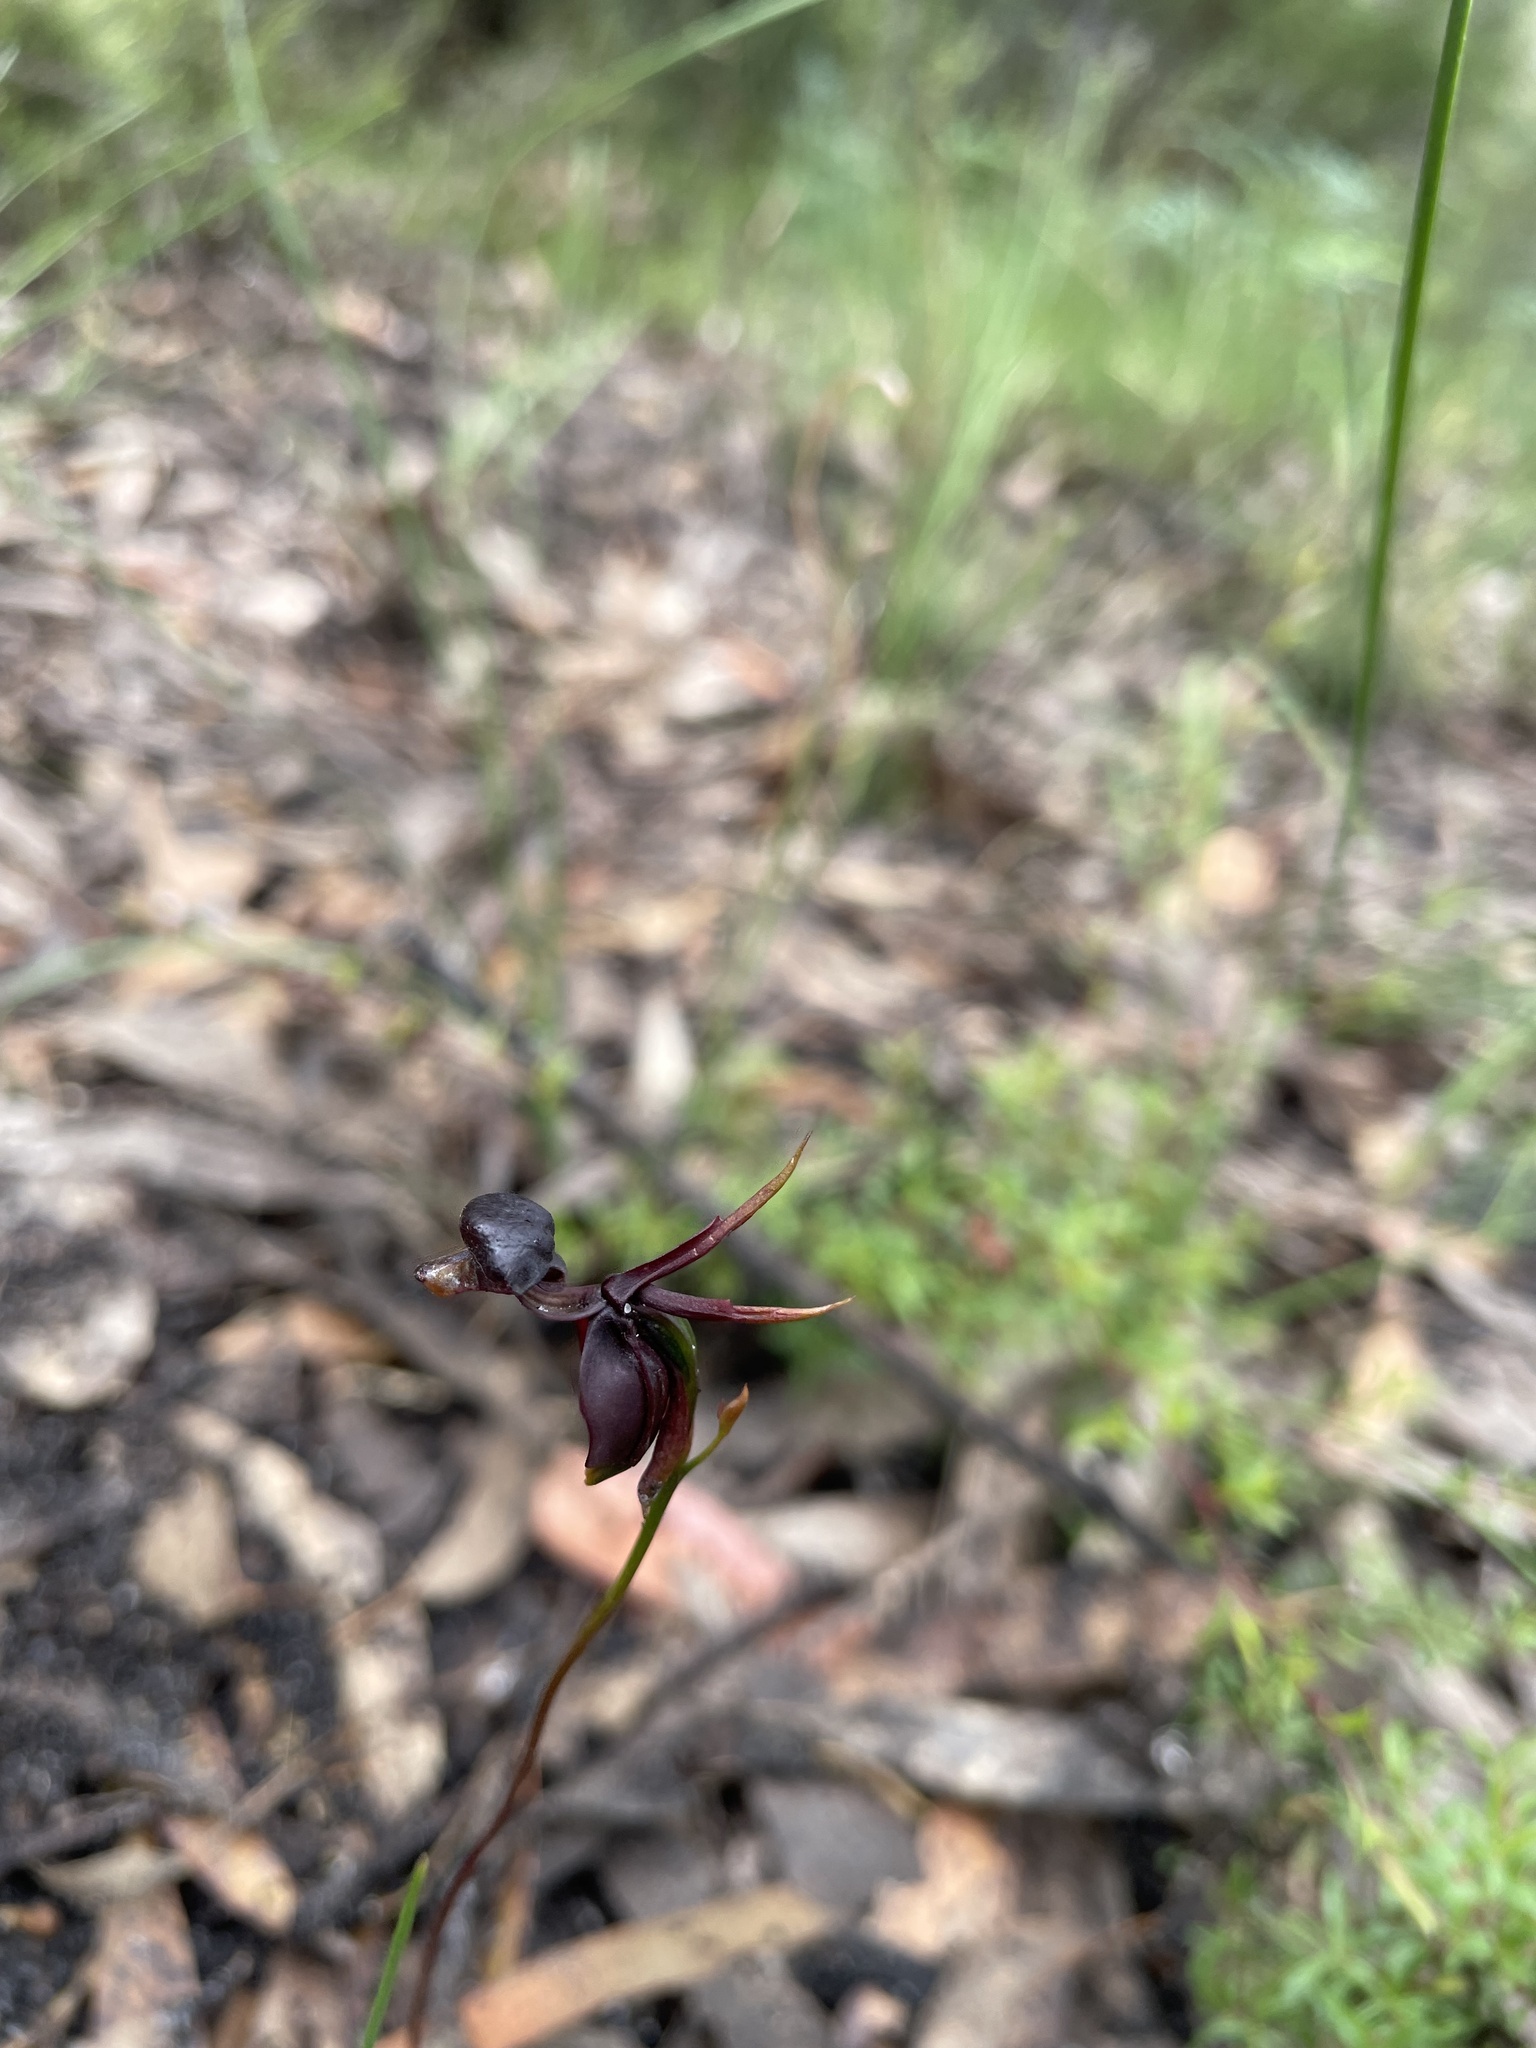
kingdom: Plantae
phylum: Tracheophyta
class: Liliopsida
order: Asparagales
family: Orchidaceae
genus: Caleana
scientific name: Caleana major
